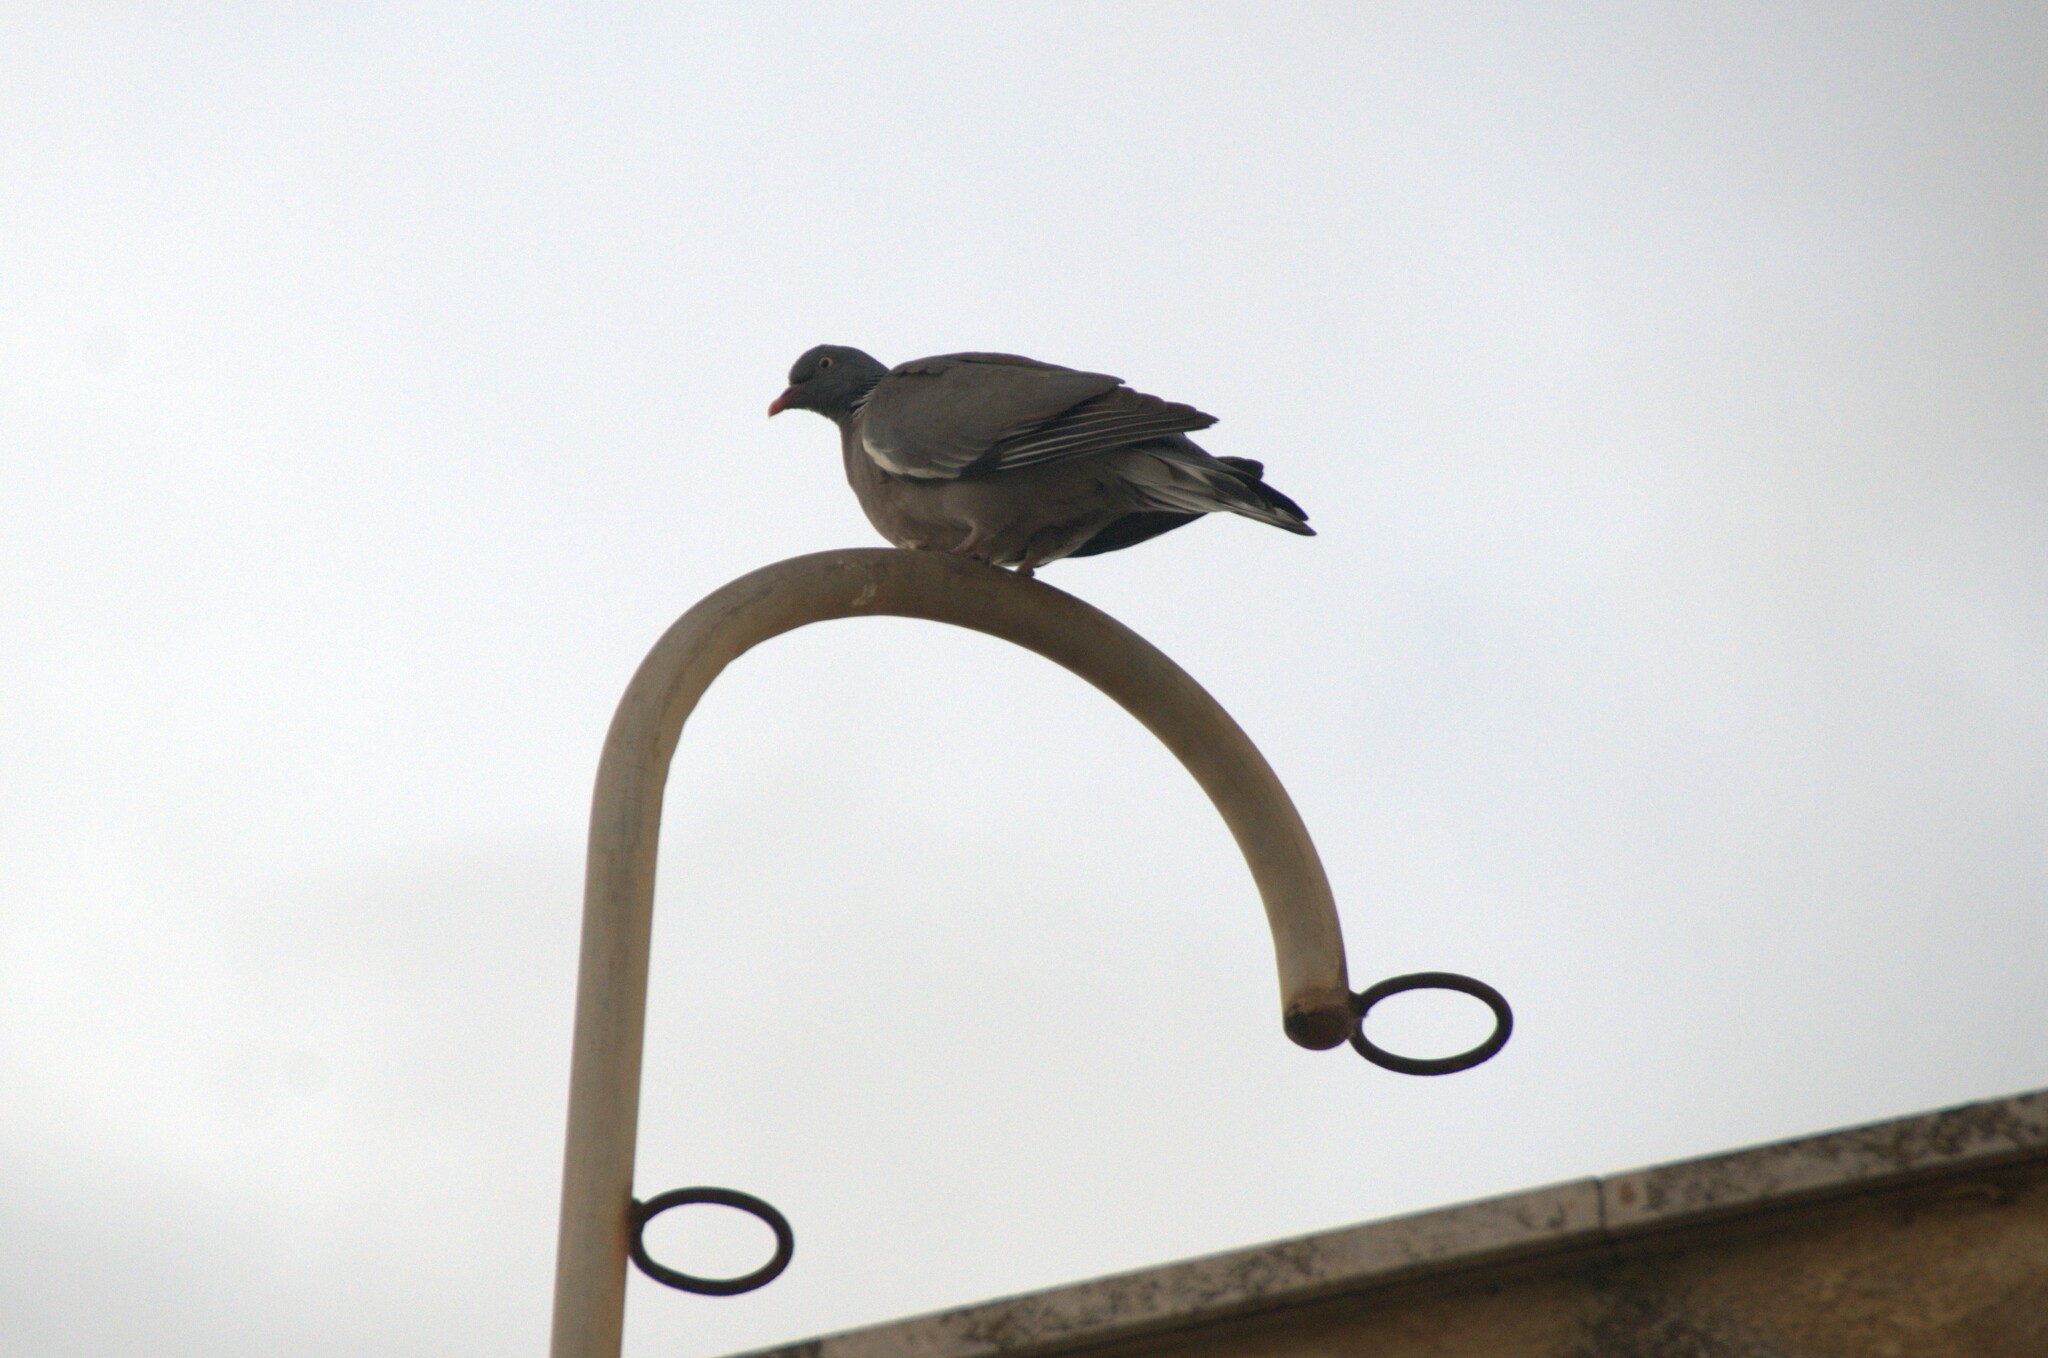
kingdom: Animalia
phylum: Chordata
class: Aves
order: Columbiformes
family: Columbidae
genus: Columba
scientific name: Columba palumbus
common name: Common wood pigeon
